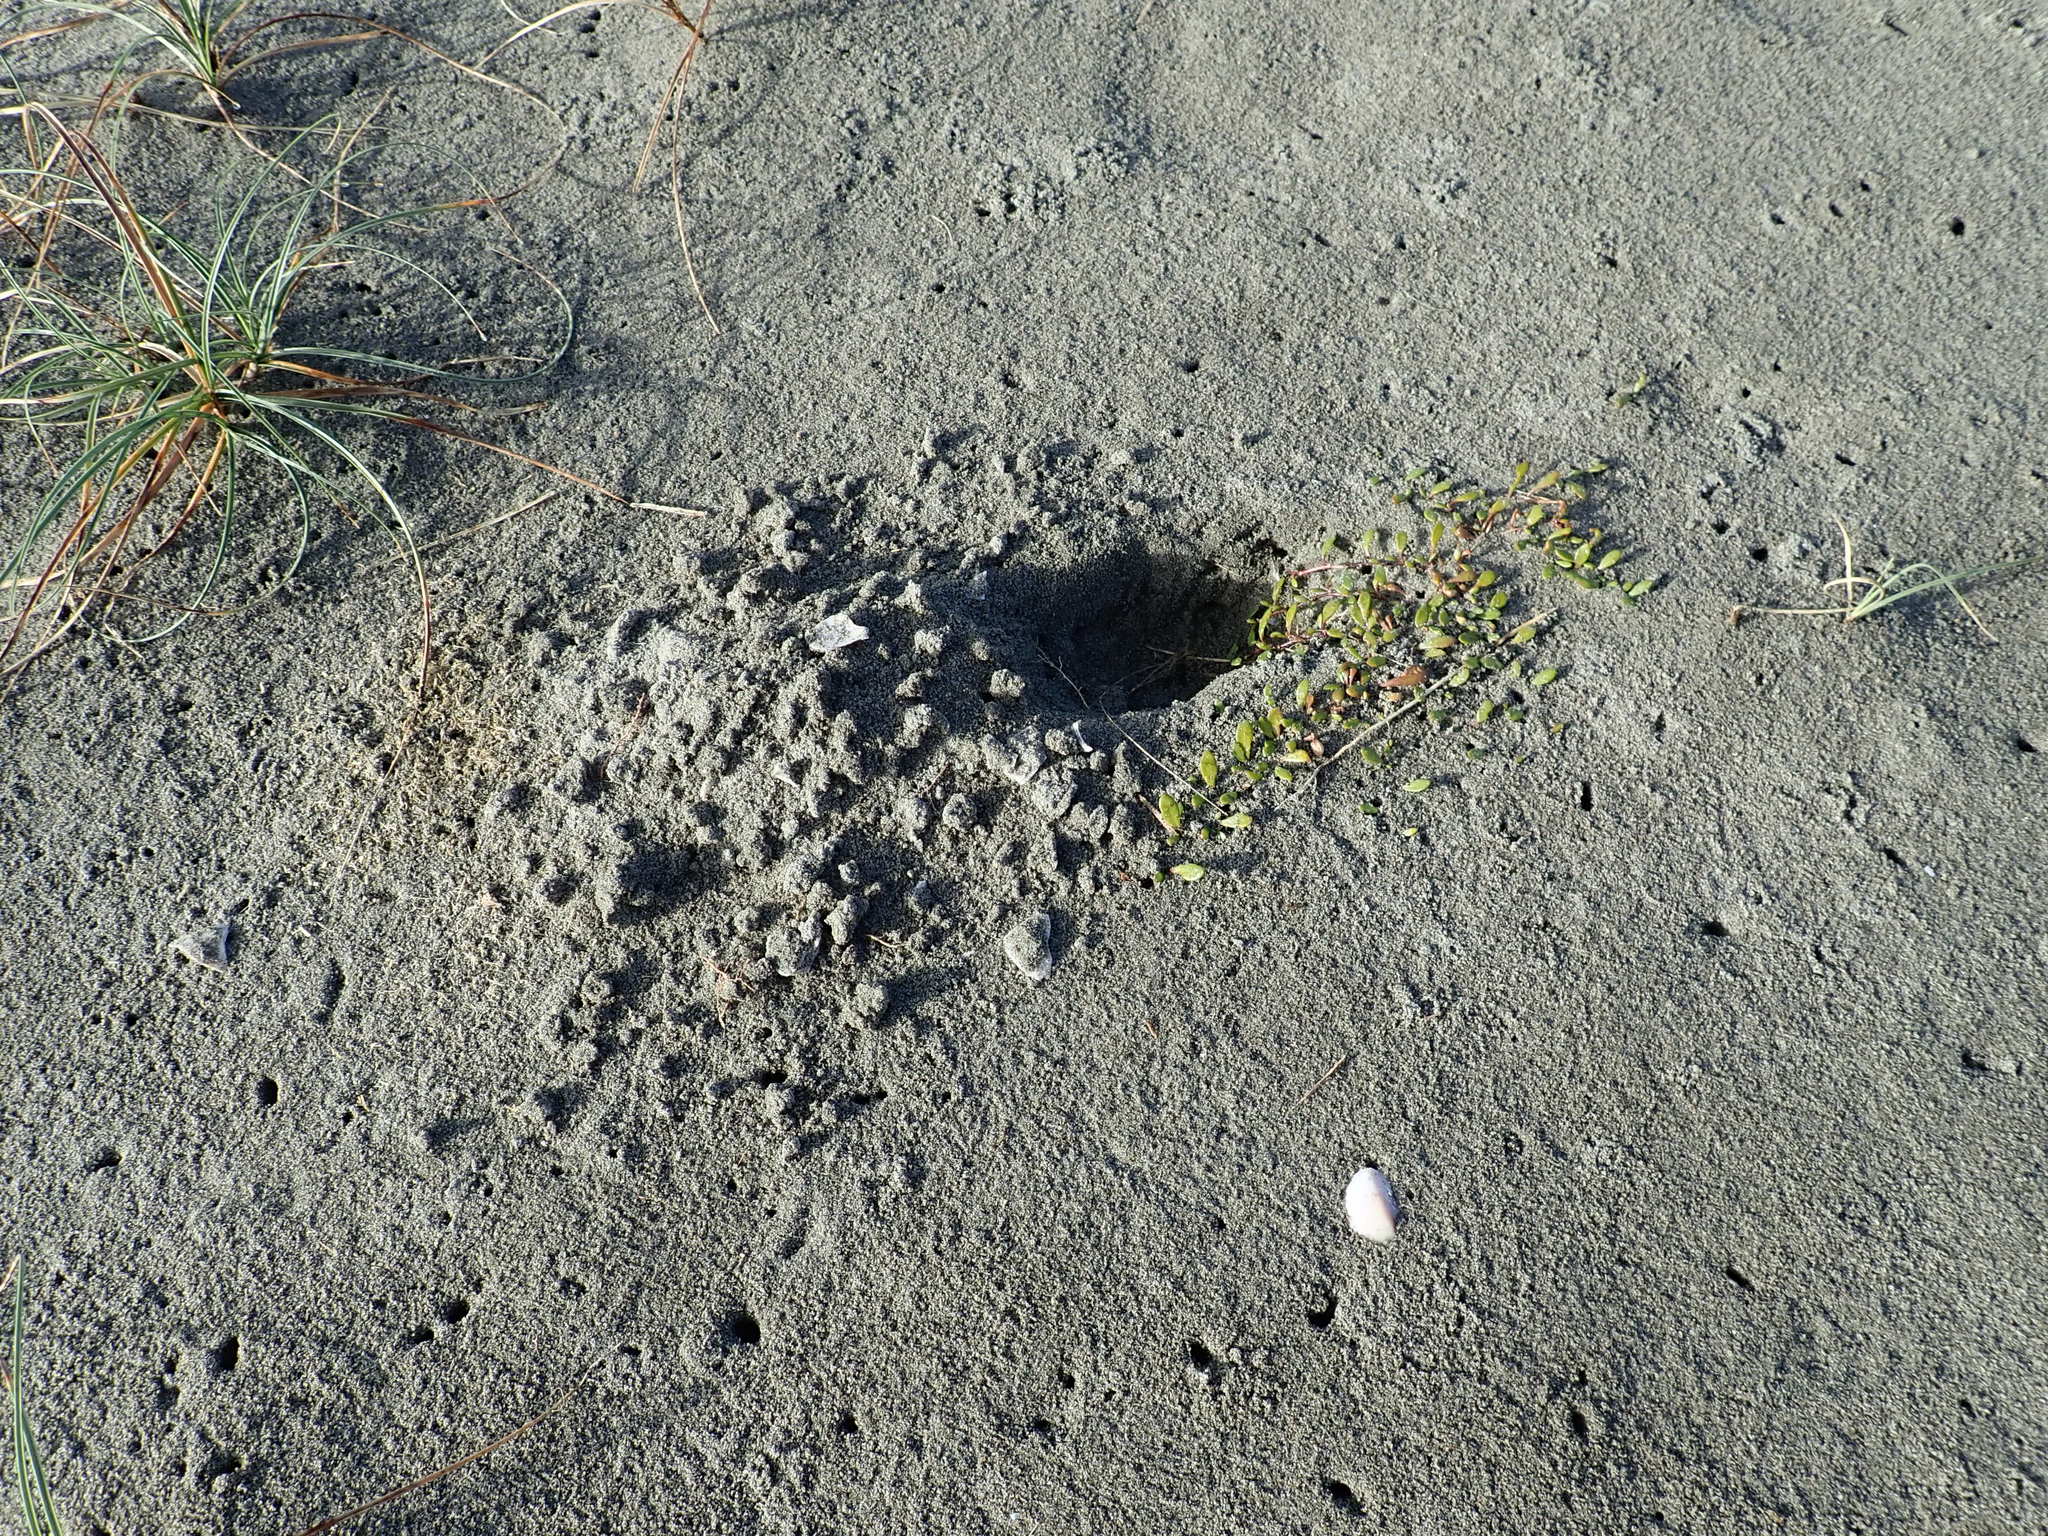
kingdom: Plantae
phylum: Tracheophyta
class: Magnoliopsida
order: Asterales
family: Goodeniaceae
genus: Goodenia
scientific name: Goodenia radicans
